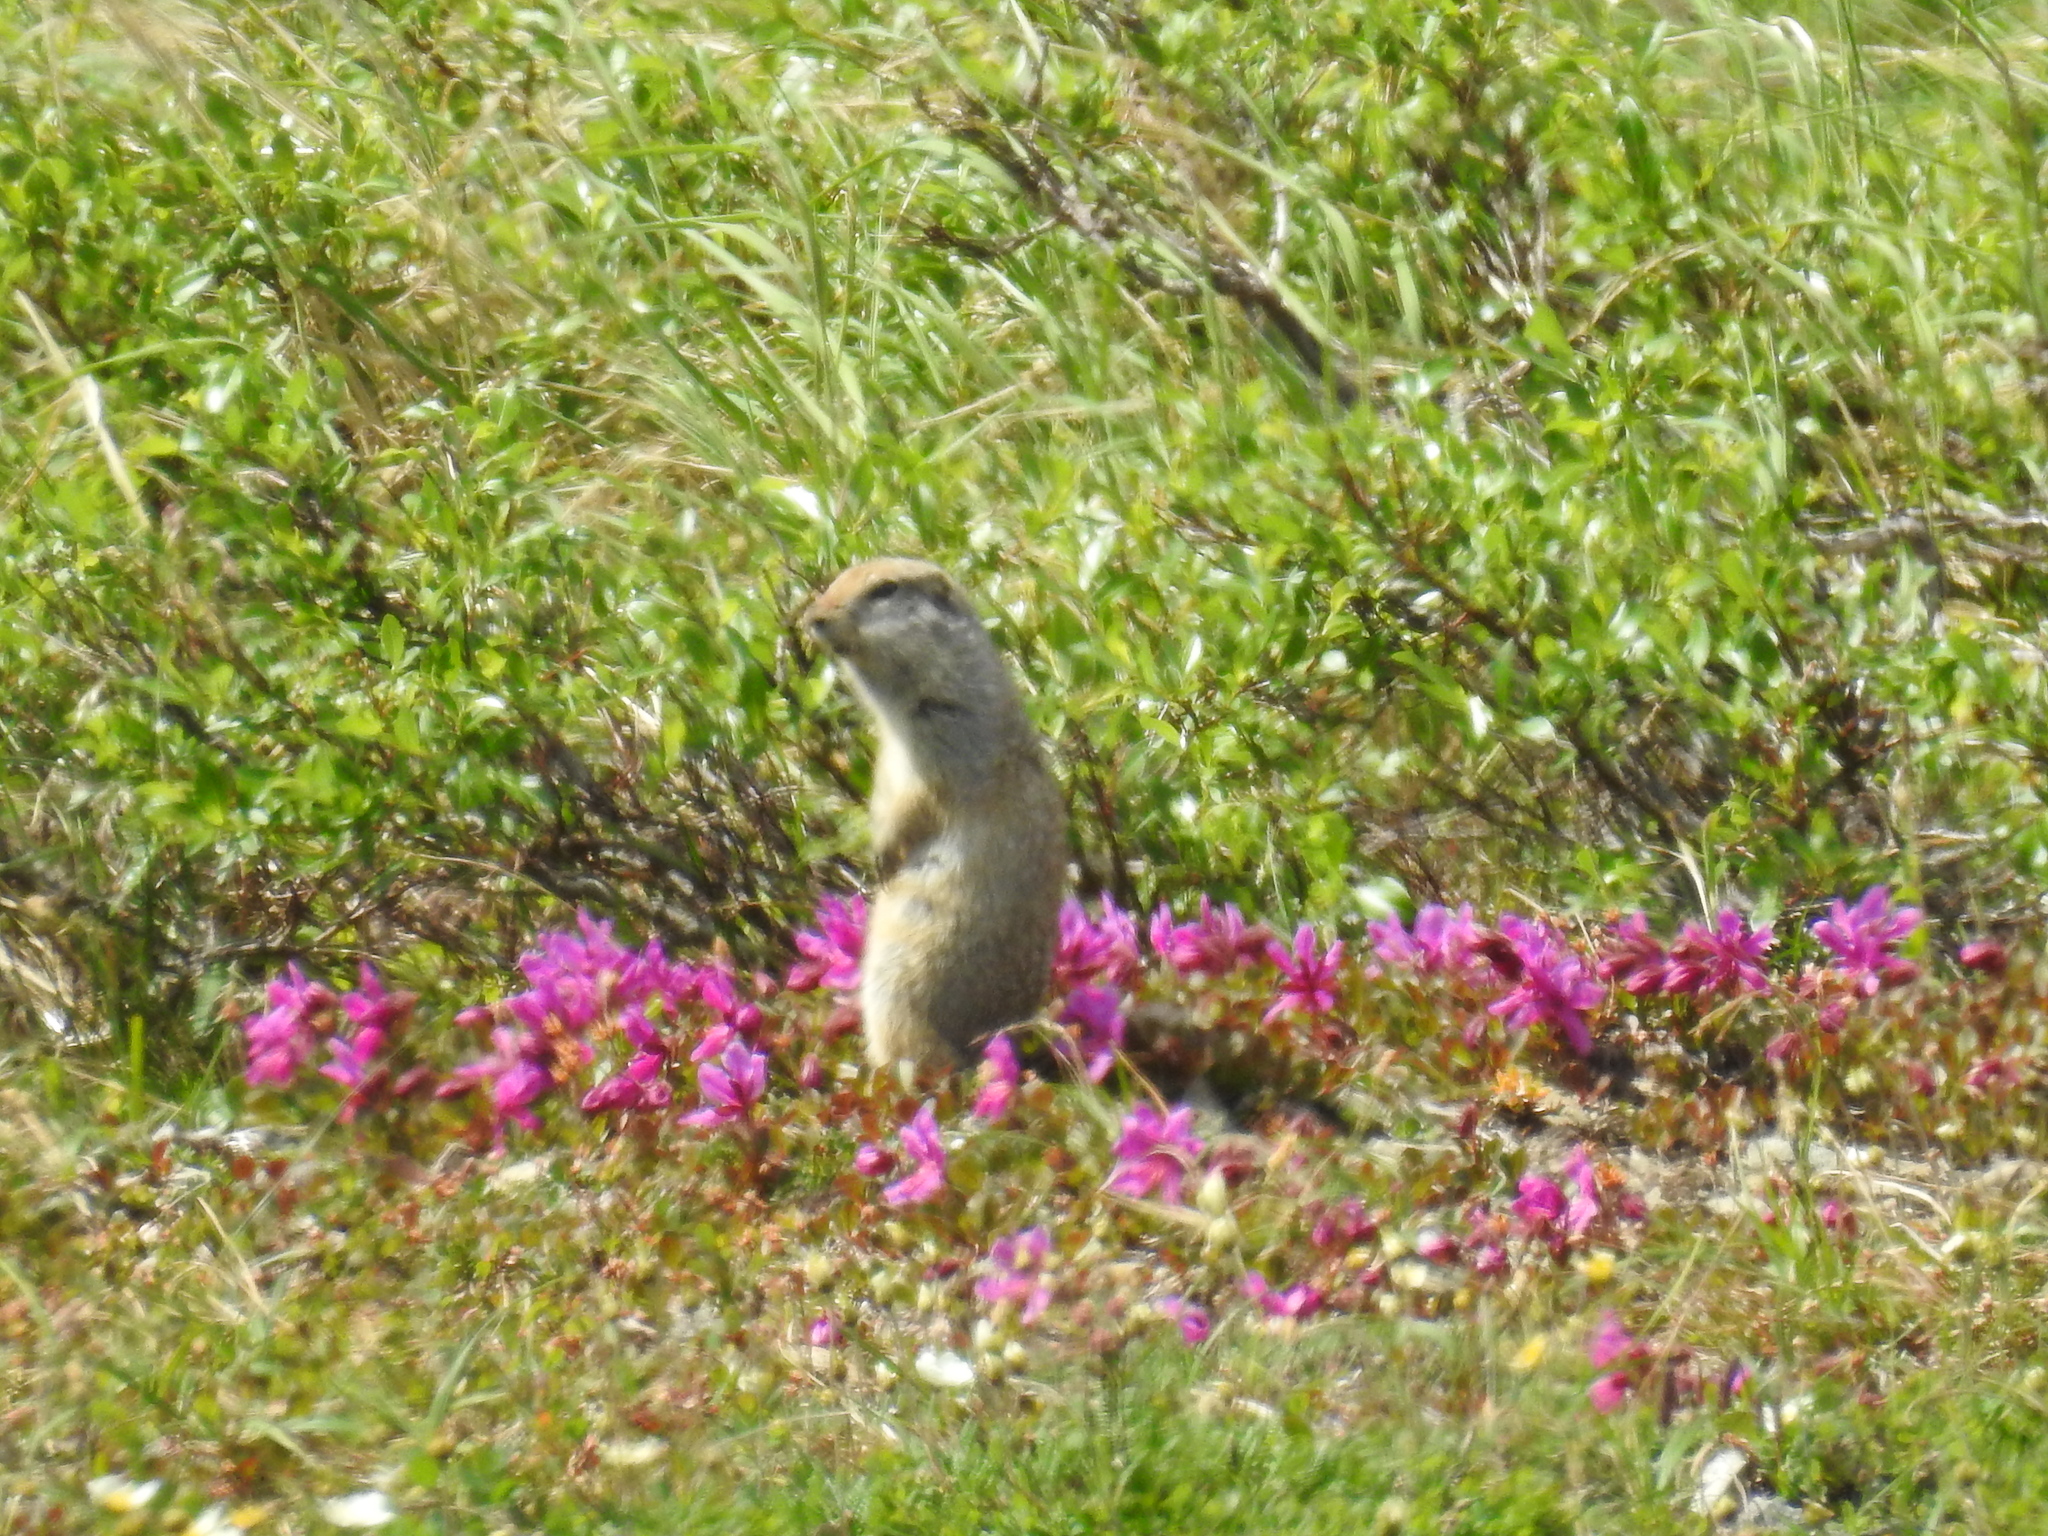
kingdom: Animalia
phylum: Chordata
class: Mammalia
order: Rodentia
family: Sciuridae
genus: Urocitellus
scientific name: Urocitellus parryii
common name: Arctic ground squirrel
